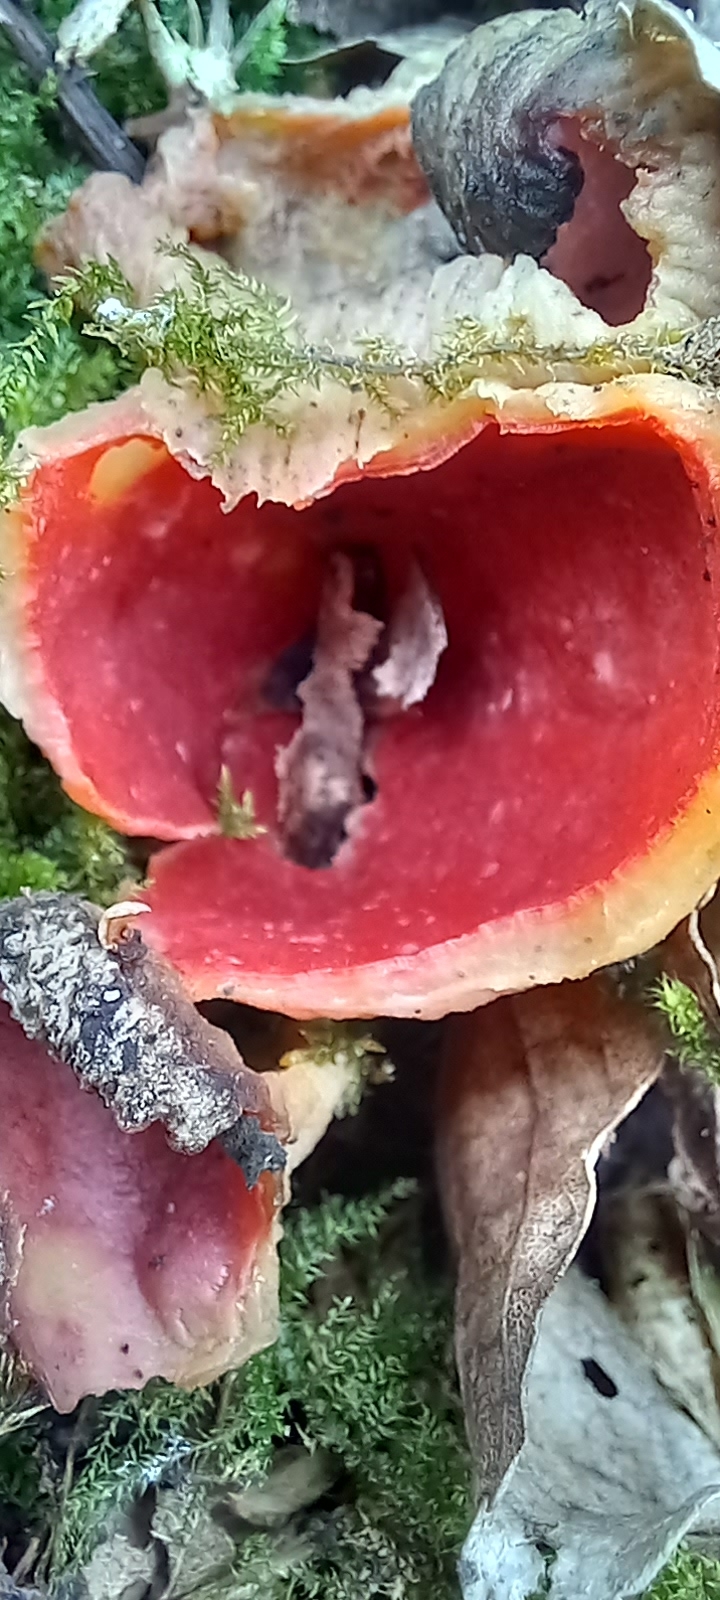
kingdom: Fungi
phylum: Ascomycota
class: Pezizomycetes
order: Pezizales
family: Sarcoscyphaceae
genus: Sarcoscypha
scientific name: Sarcoscypha
